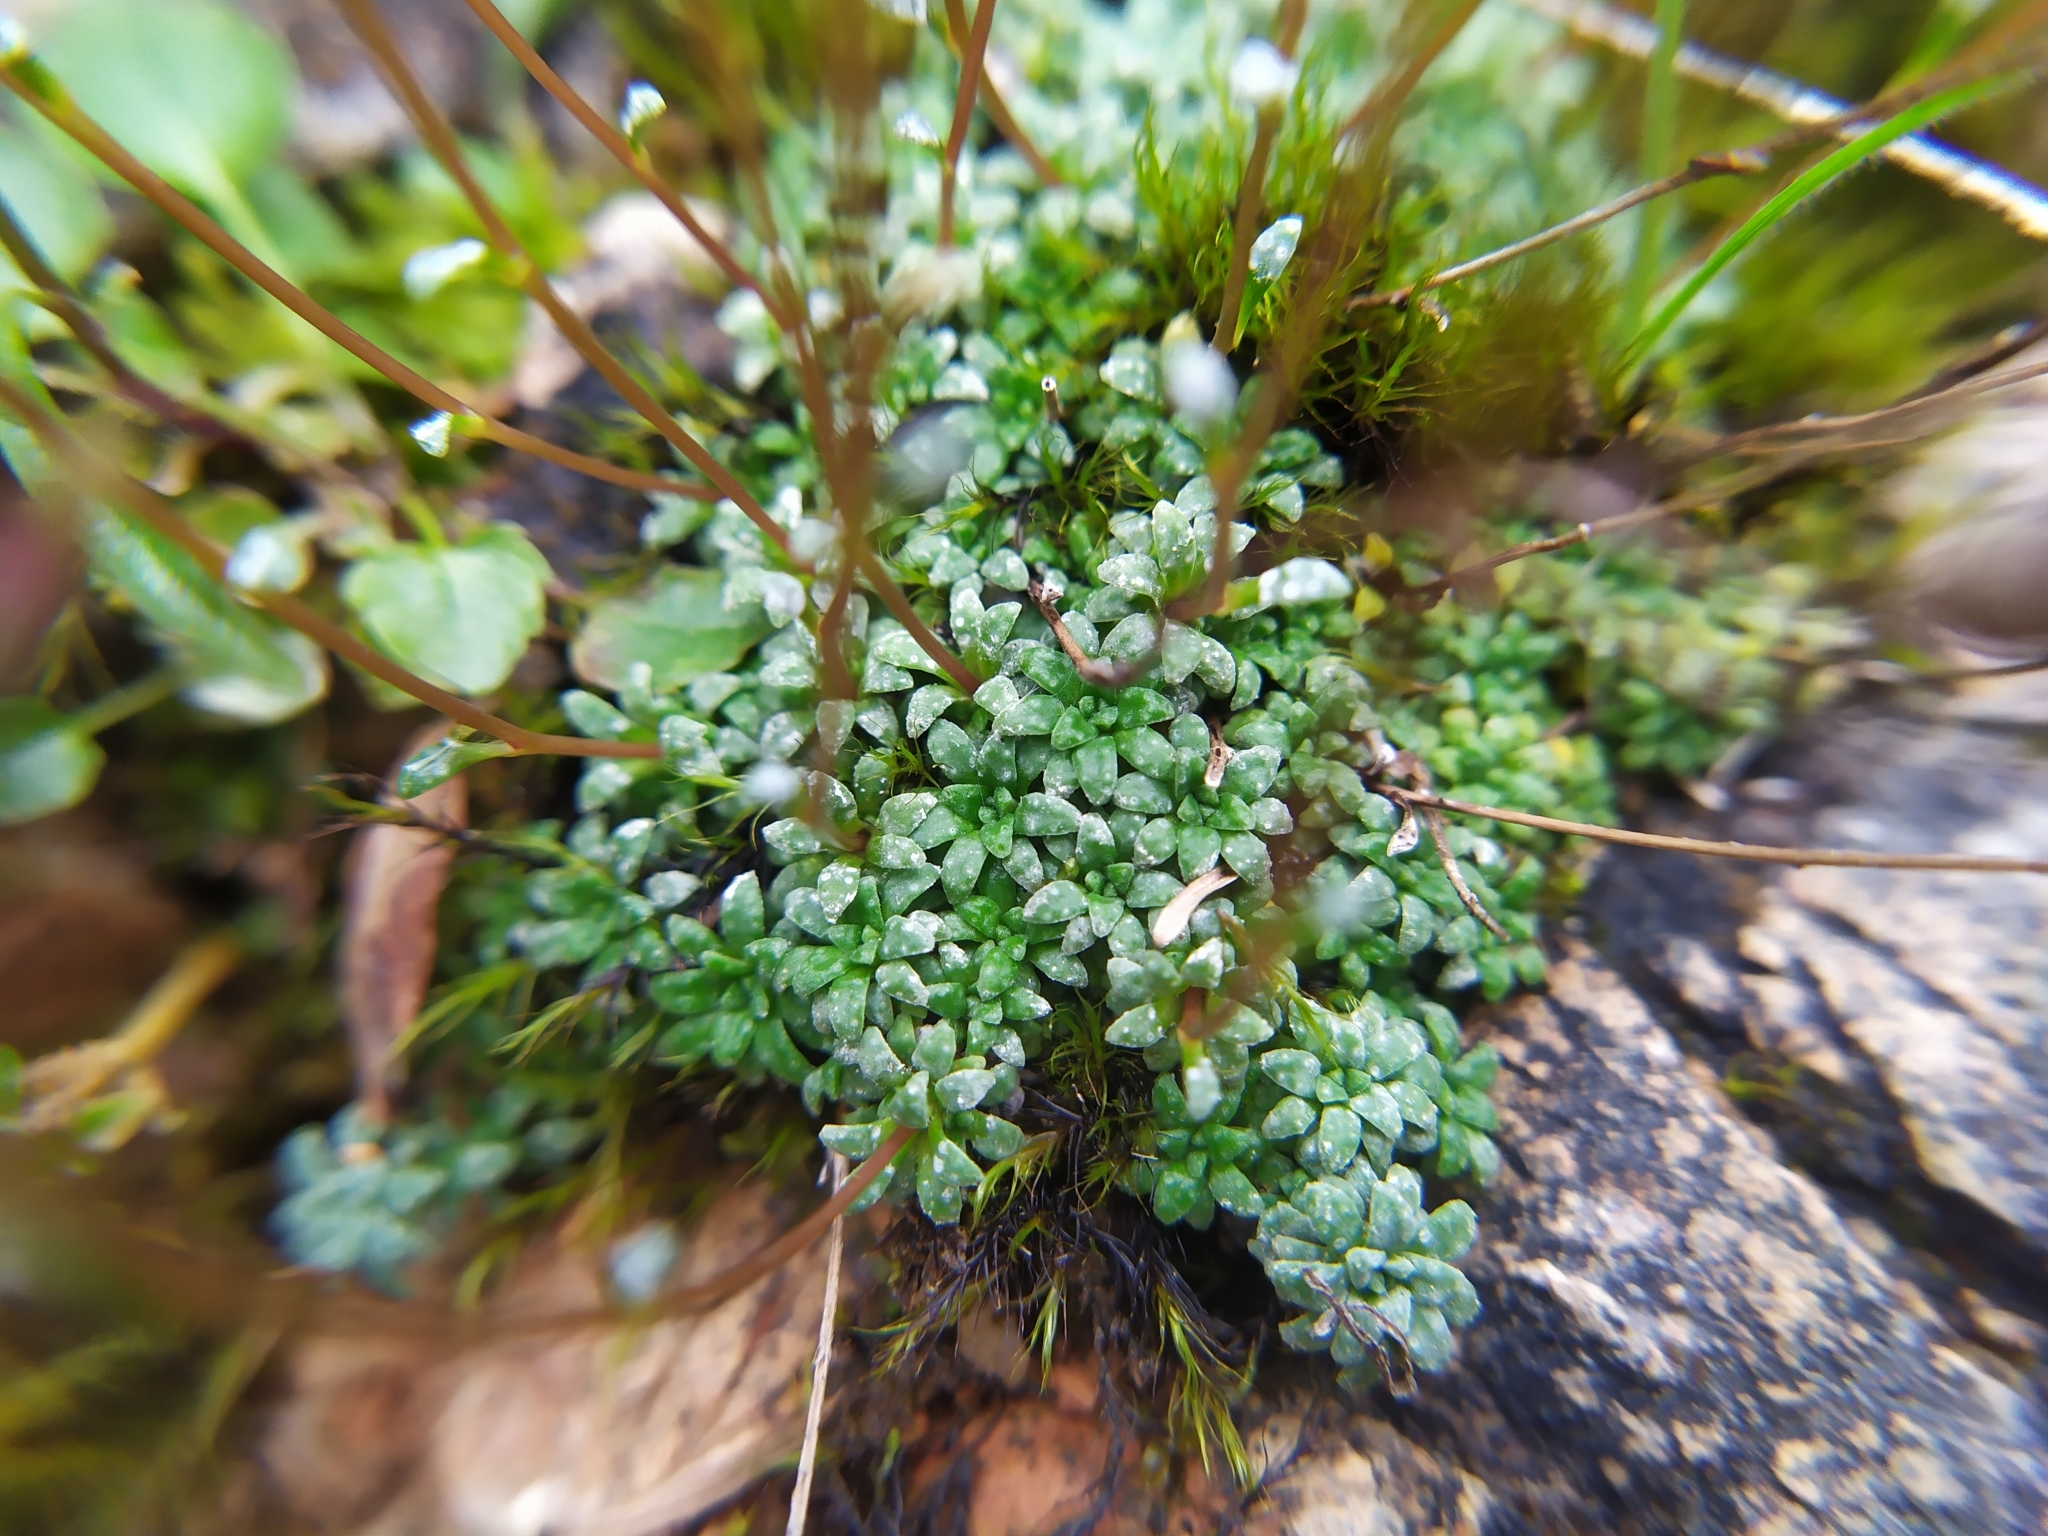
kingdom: Plantae
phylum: Tracheophyta
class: Magnoliopsida
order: Saxifragales
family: Saxifragaceae
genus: Saxifraga
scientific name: Saxifraga caesia
